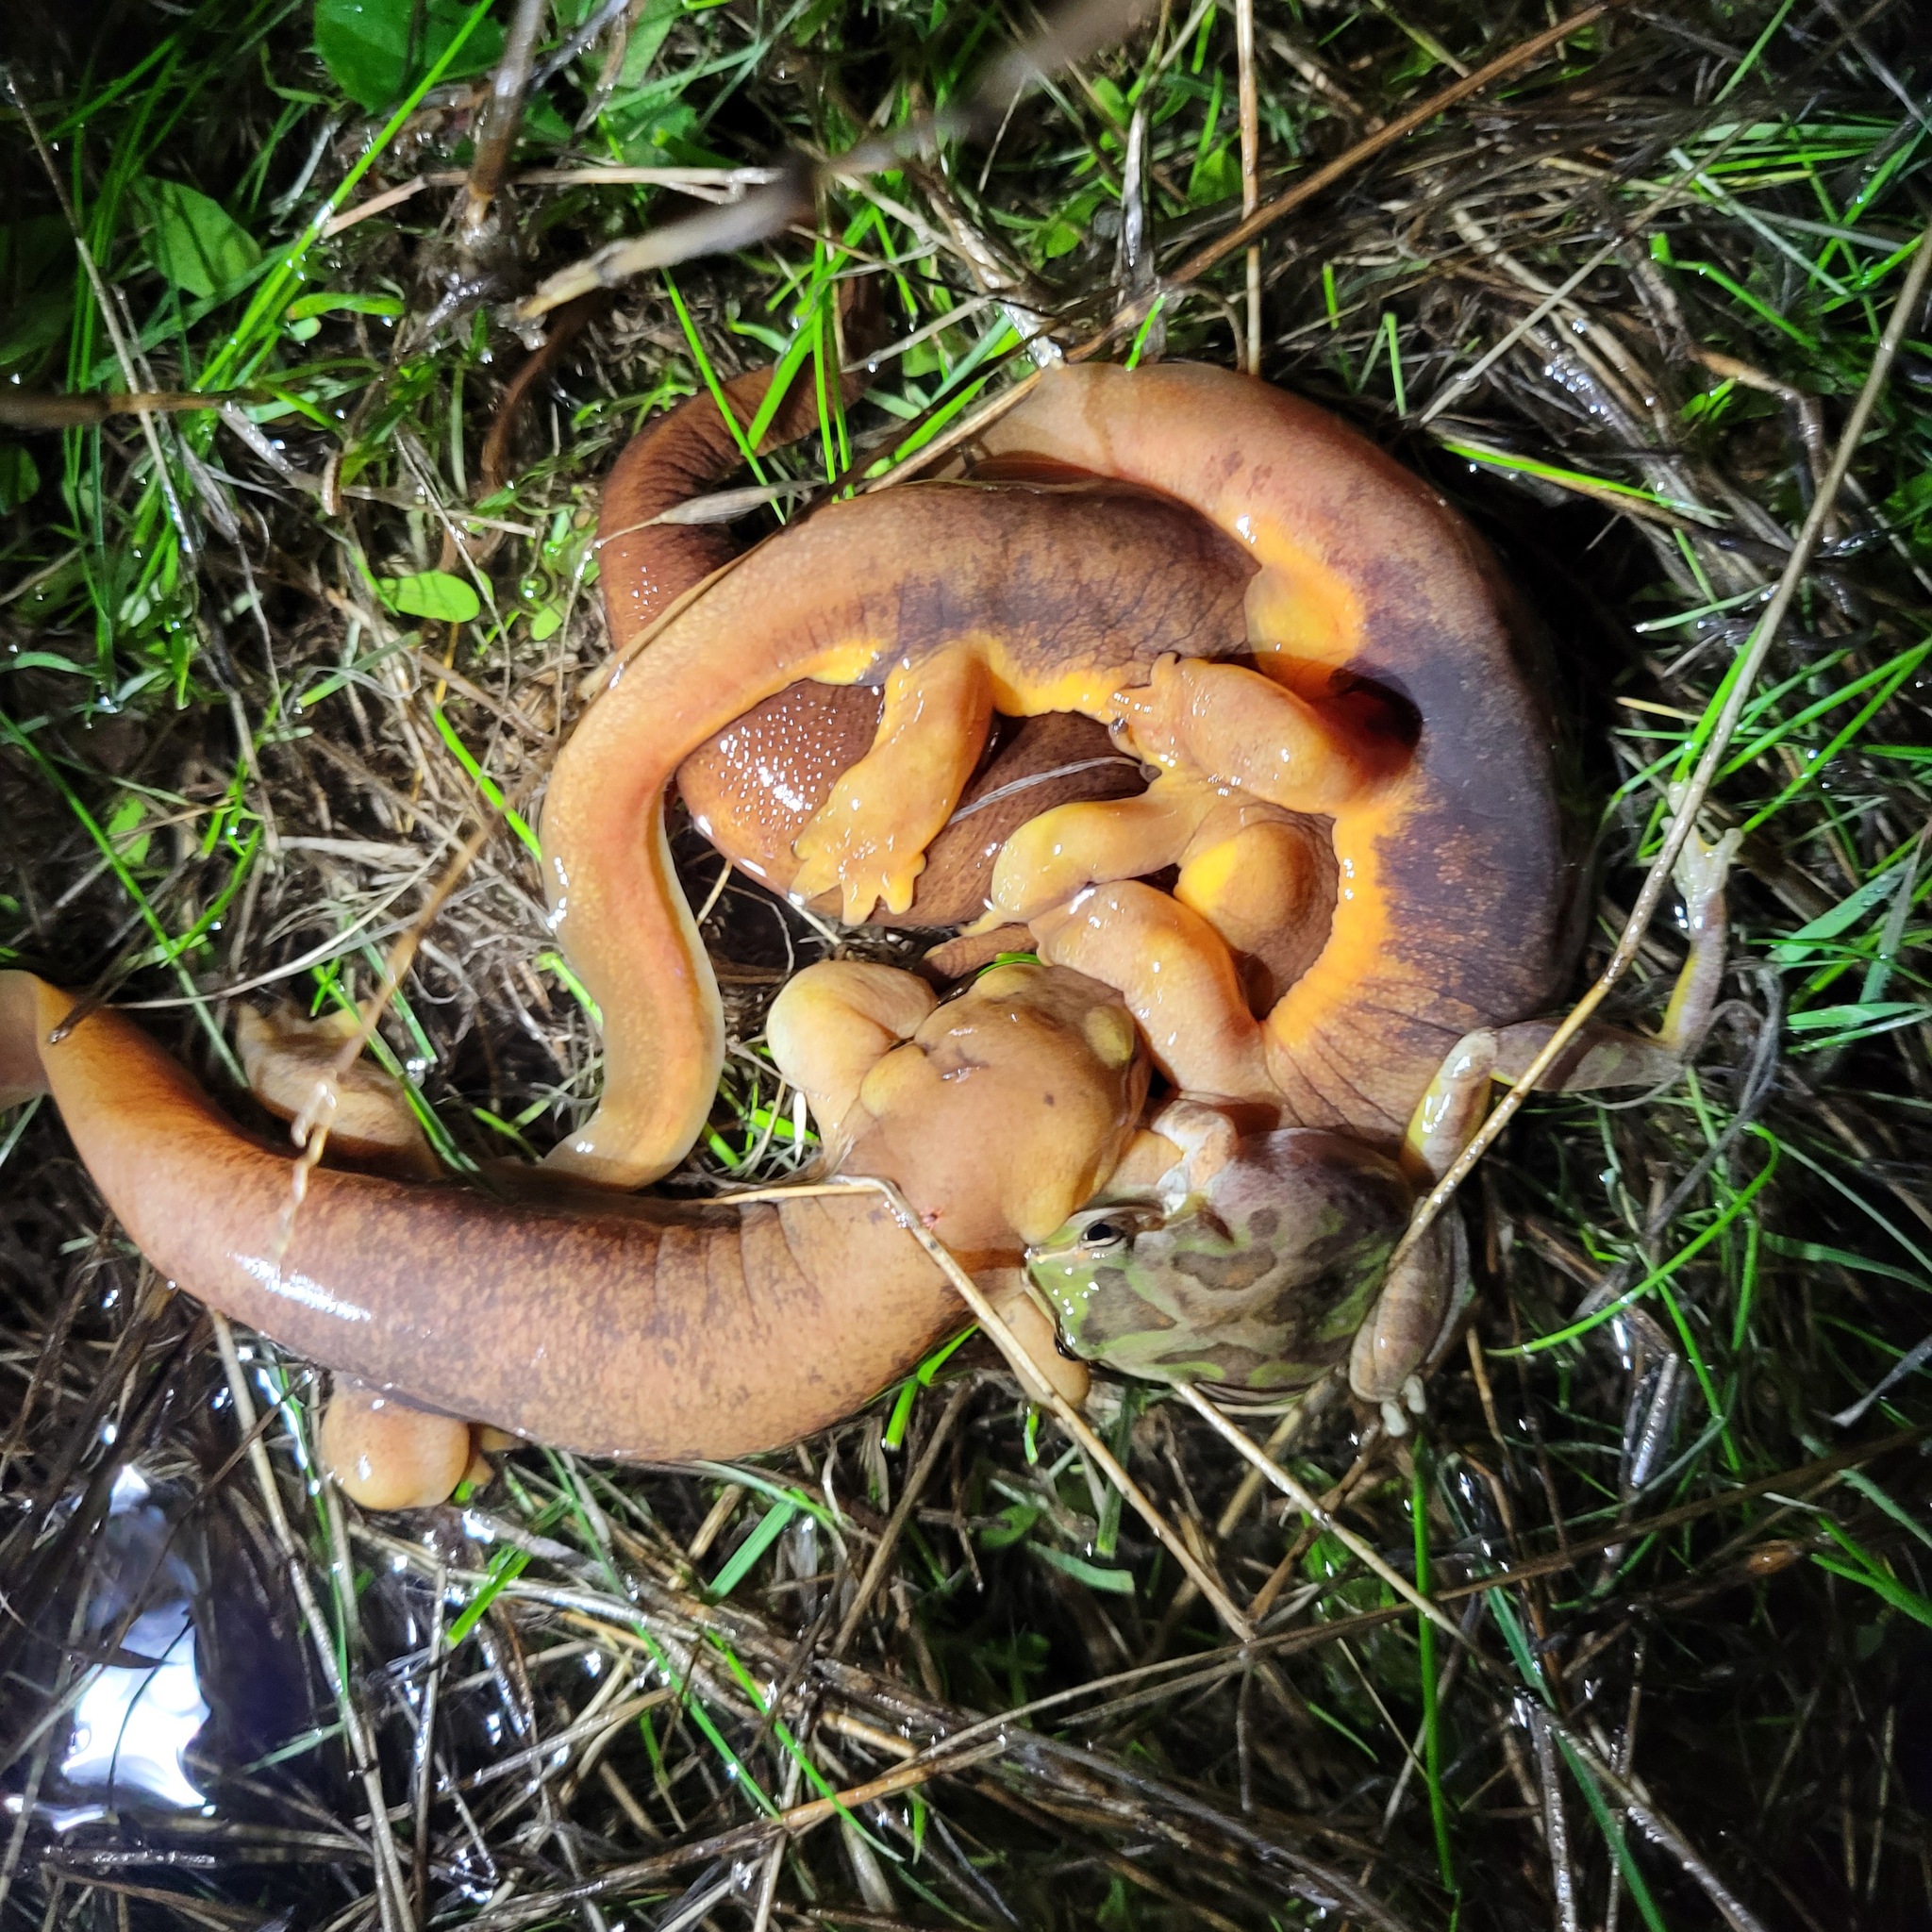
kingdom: Animalia
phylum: Chordata
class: Amphibia
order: Caudata
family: Salamandridae
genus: Taricha
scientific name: Taricha torosa
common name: California newt
